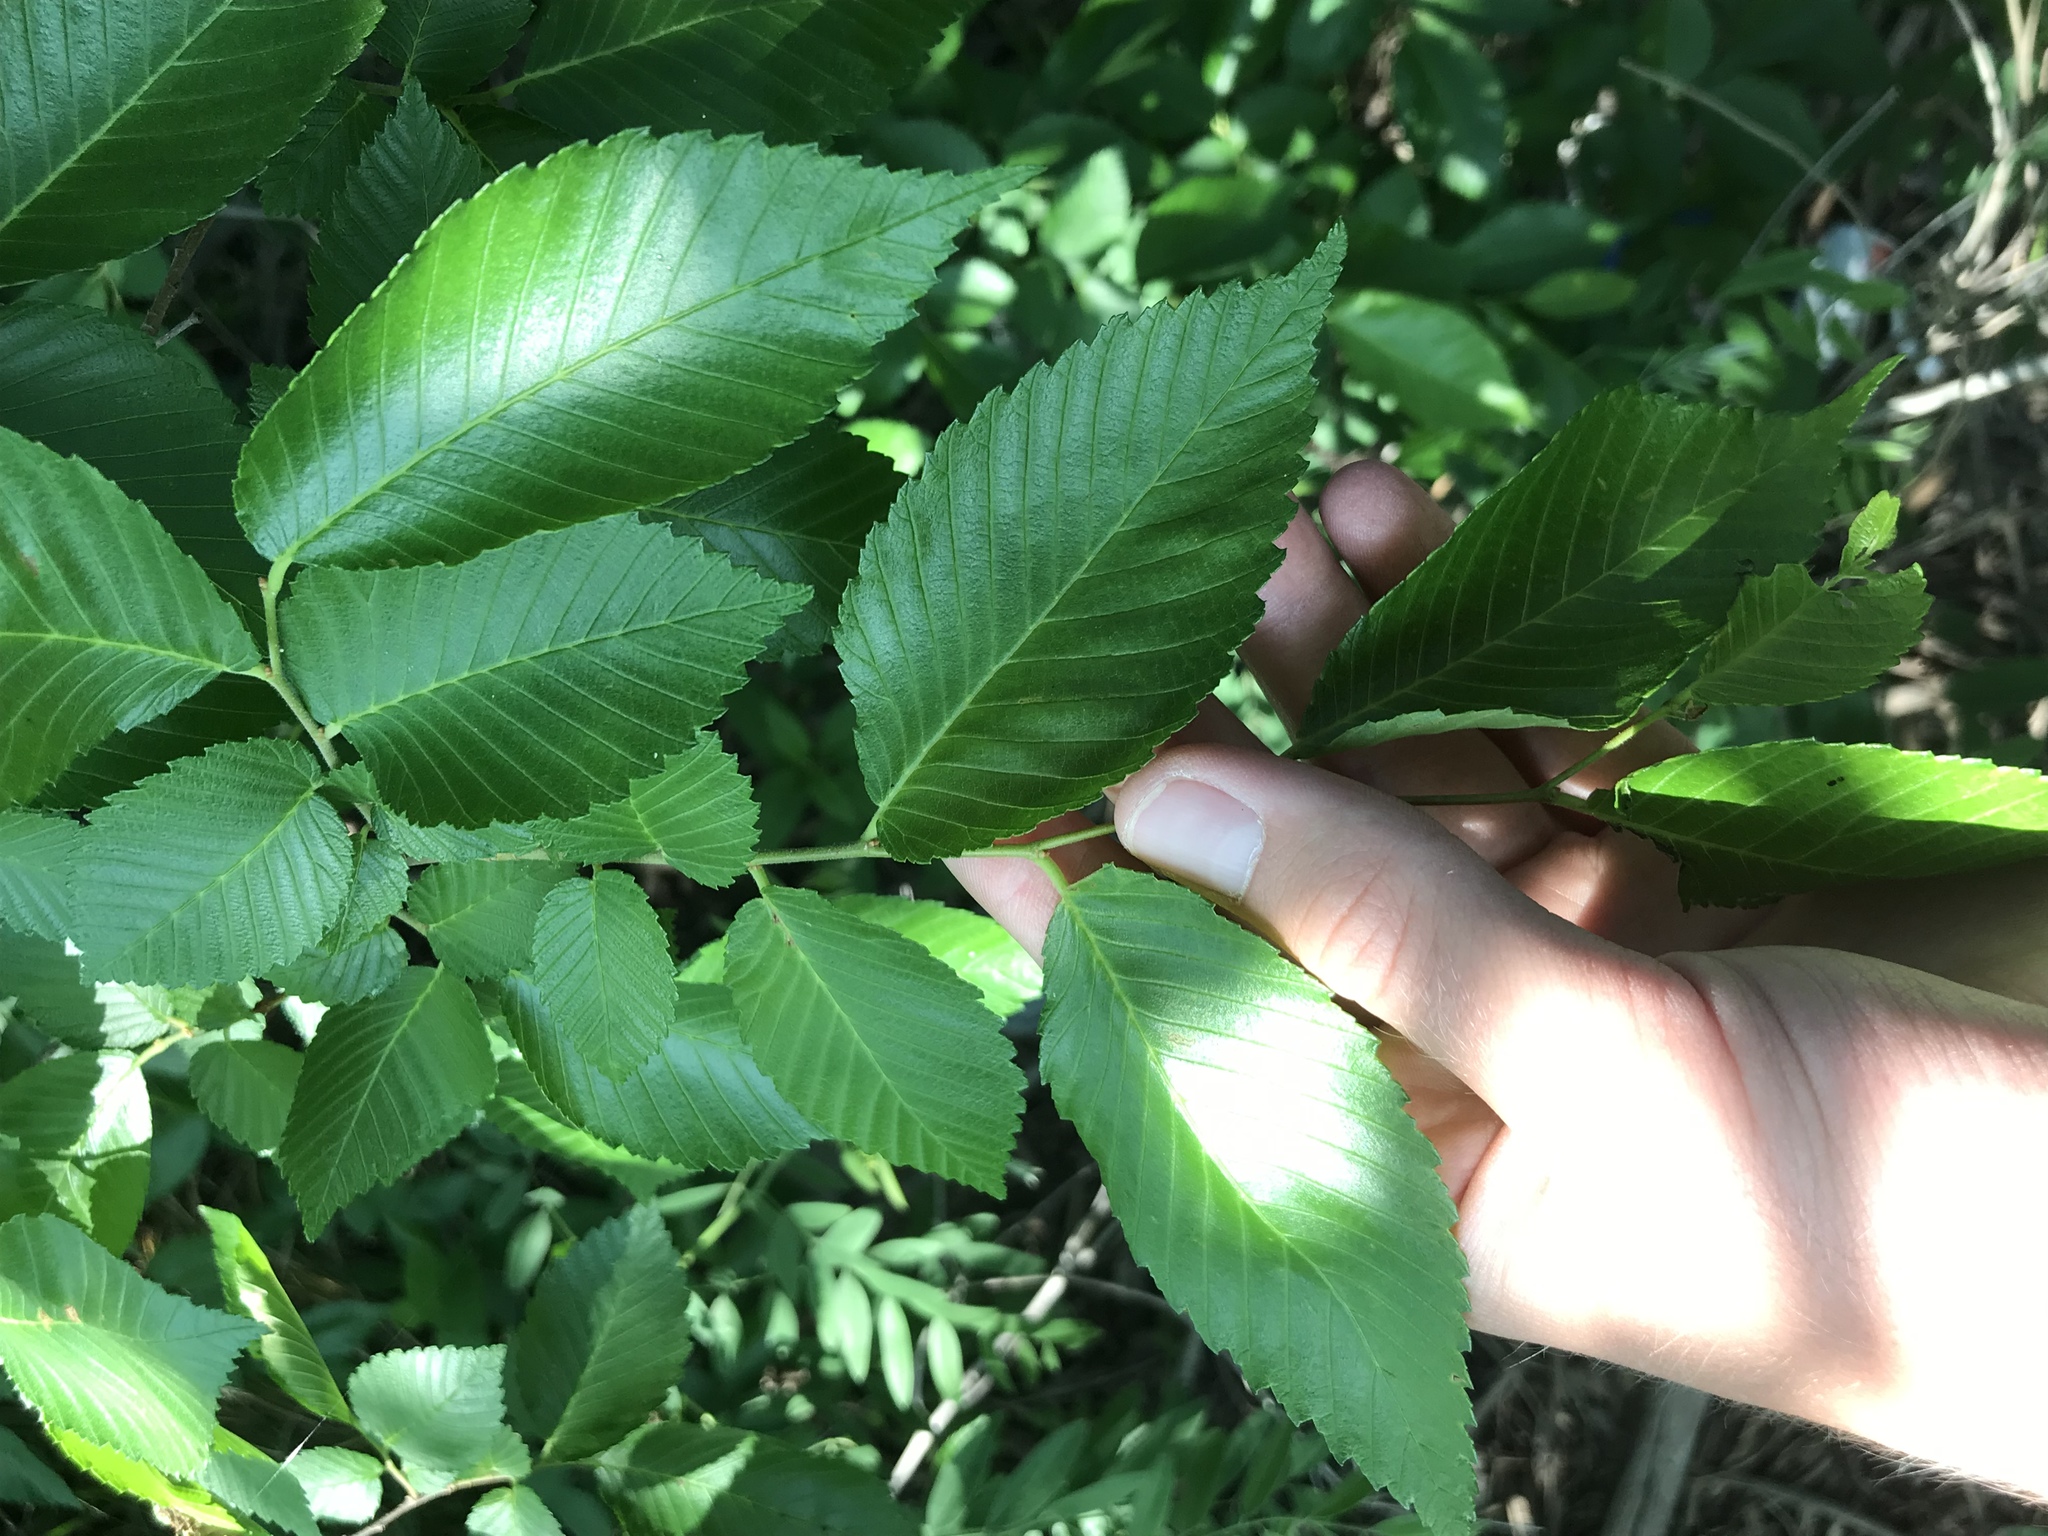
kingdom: Plantae
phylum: Tracheophyta
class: Magnoliopsida
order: Rosales
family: Ulmaceae
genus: Ulmus
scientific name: Ulmus americana
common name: American elm
